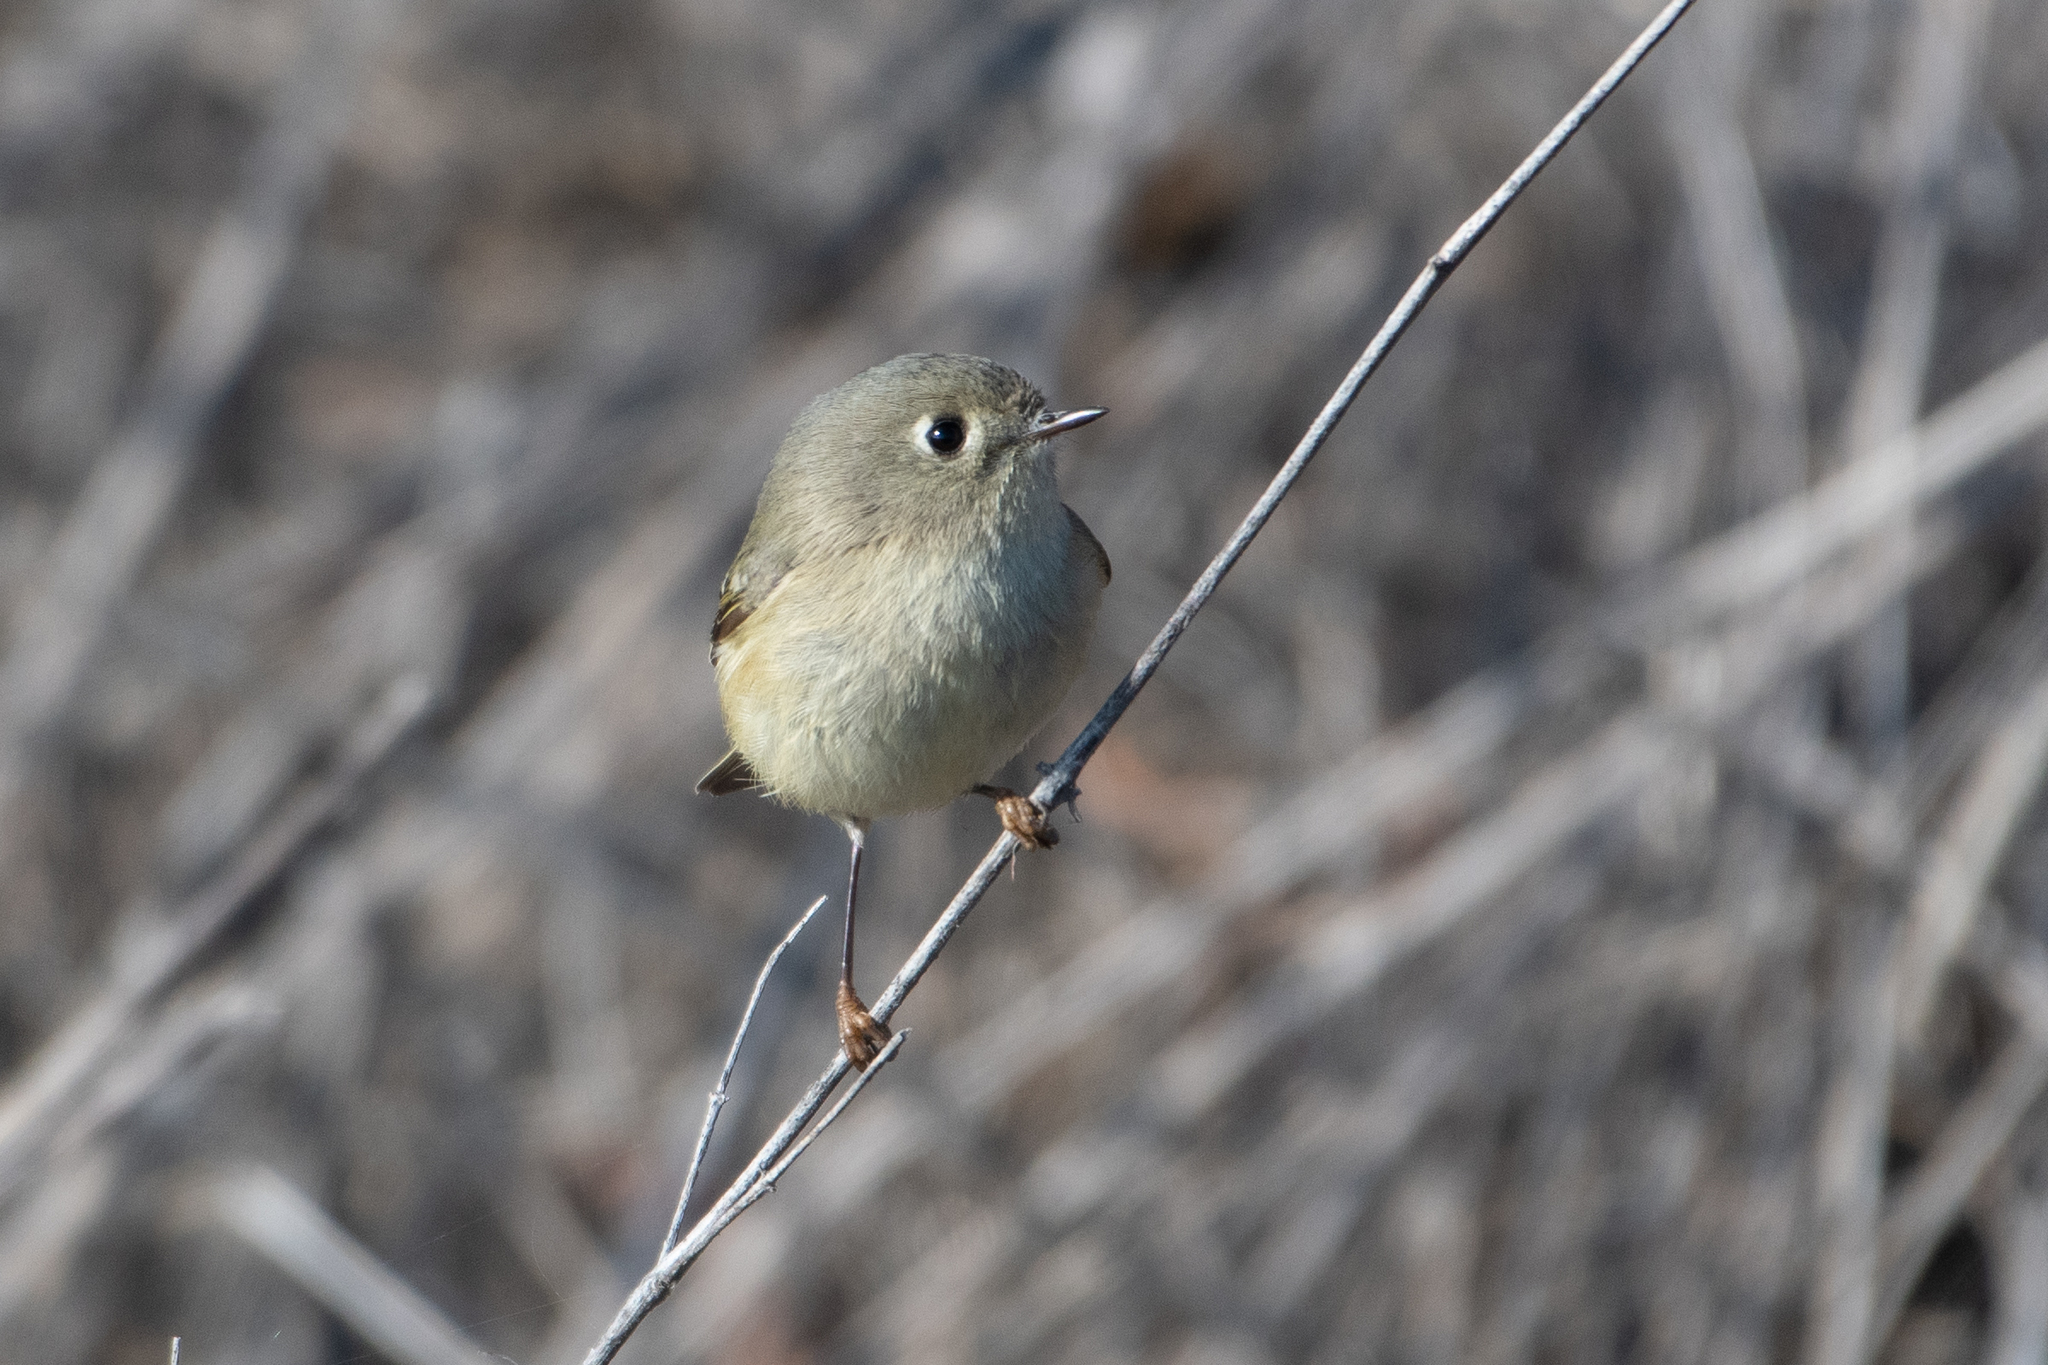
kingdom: Animalia
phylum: Chordata
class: Aves
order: Passeriformes
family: Regulidae
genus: Regulus
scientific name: Regulus calendula
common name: Ruby-crowned kinglet
